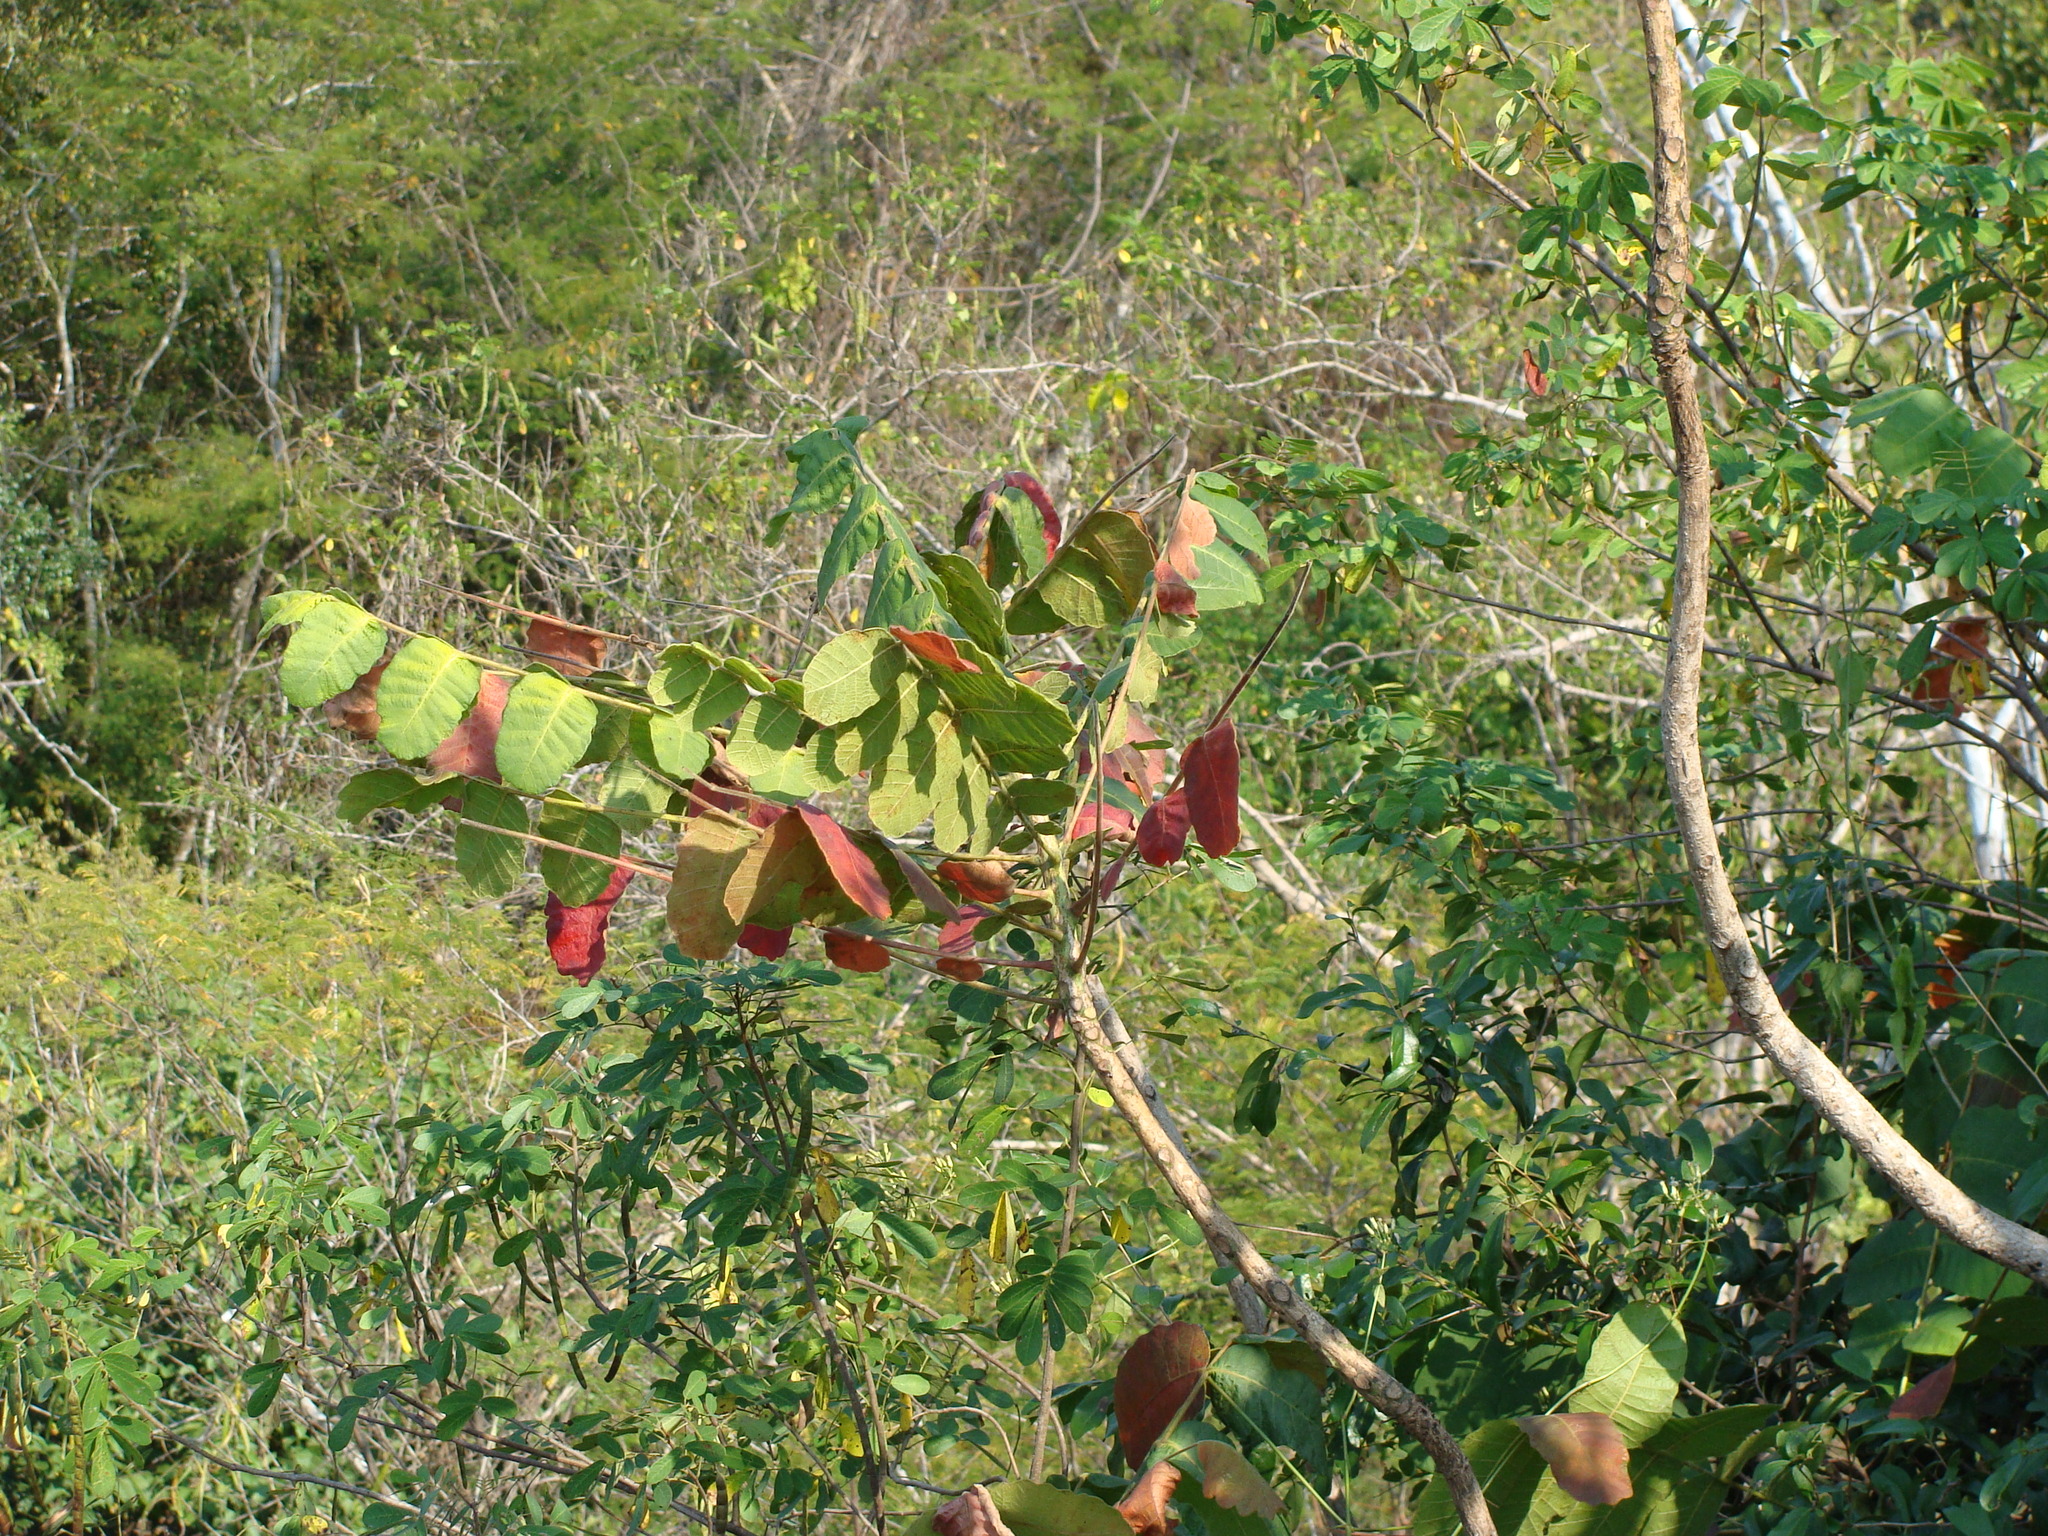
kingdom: Plantae
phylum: Tracheophyta
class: Magnoliopsida
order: Sapindales
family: Anacardiaceae
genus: Comocladia
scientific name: Comocladia macrophylla
